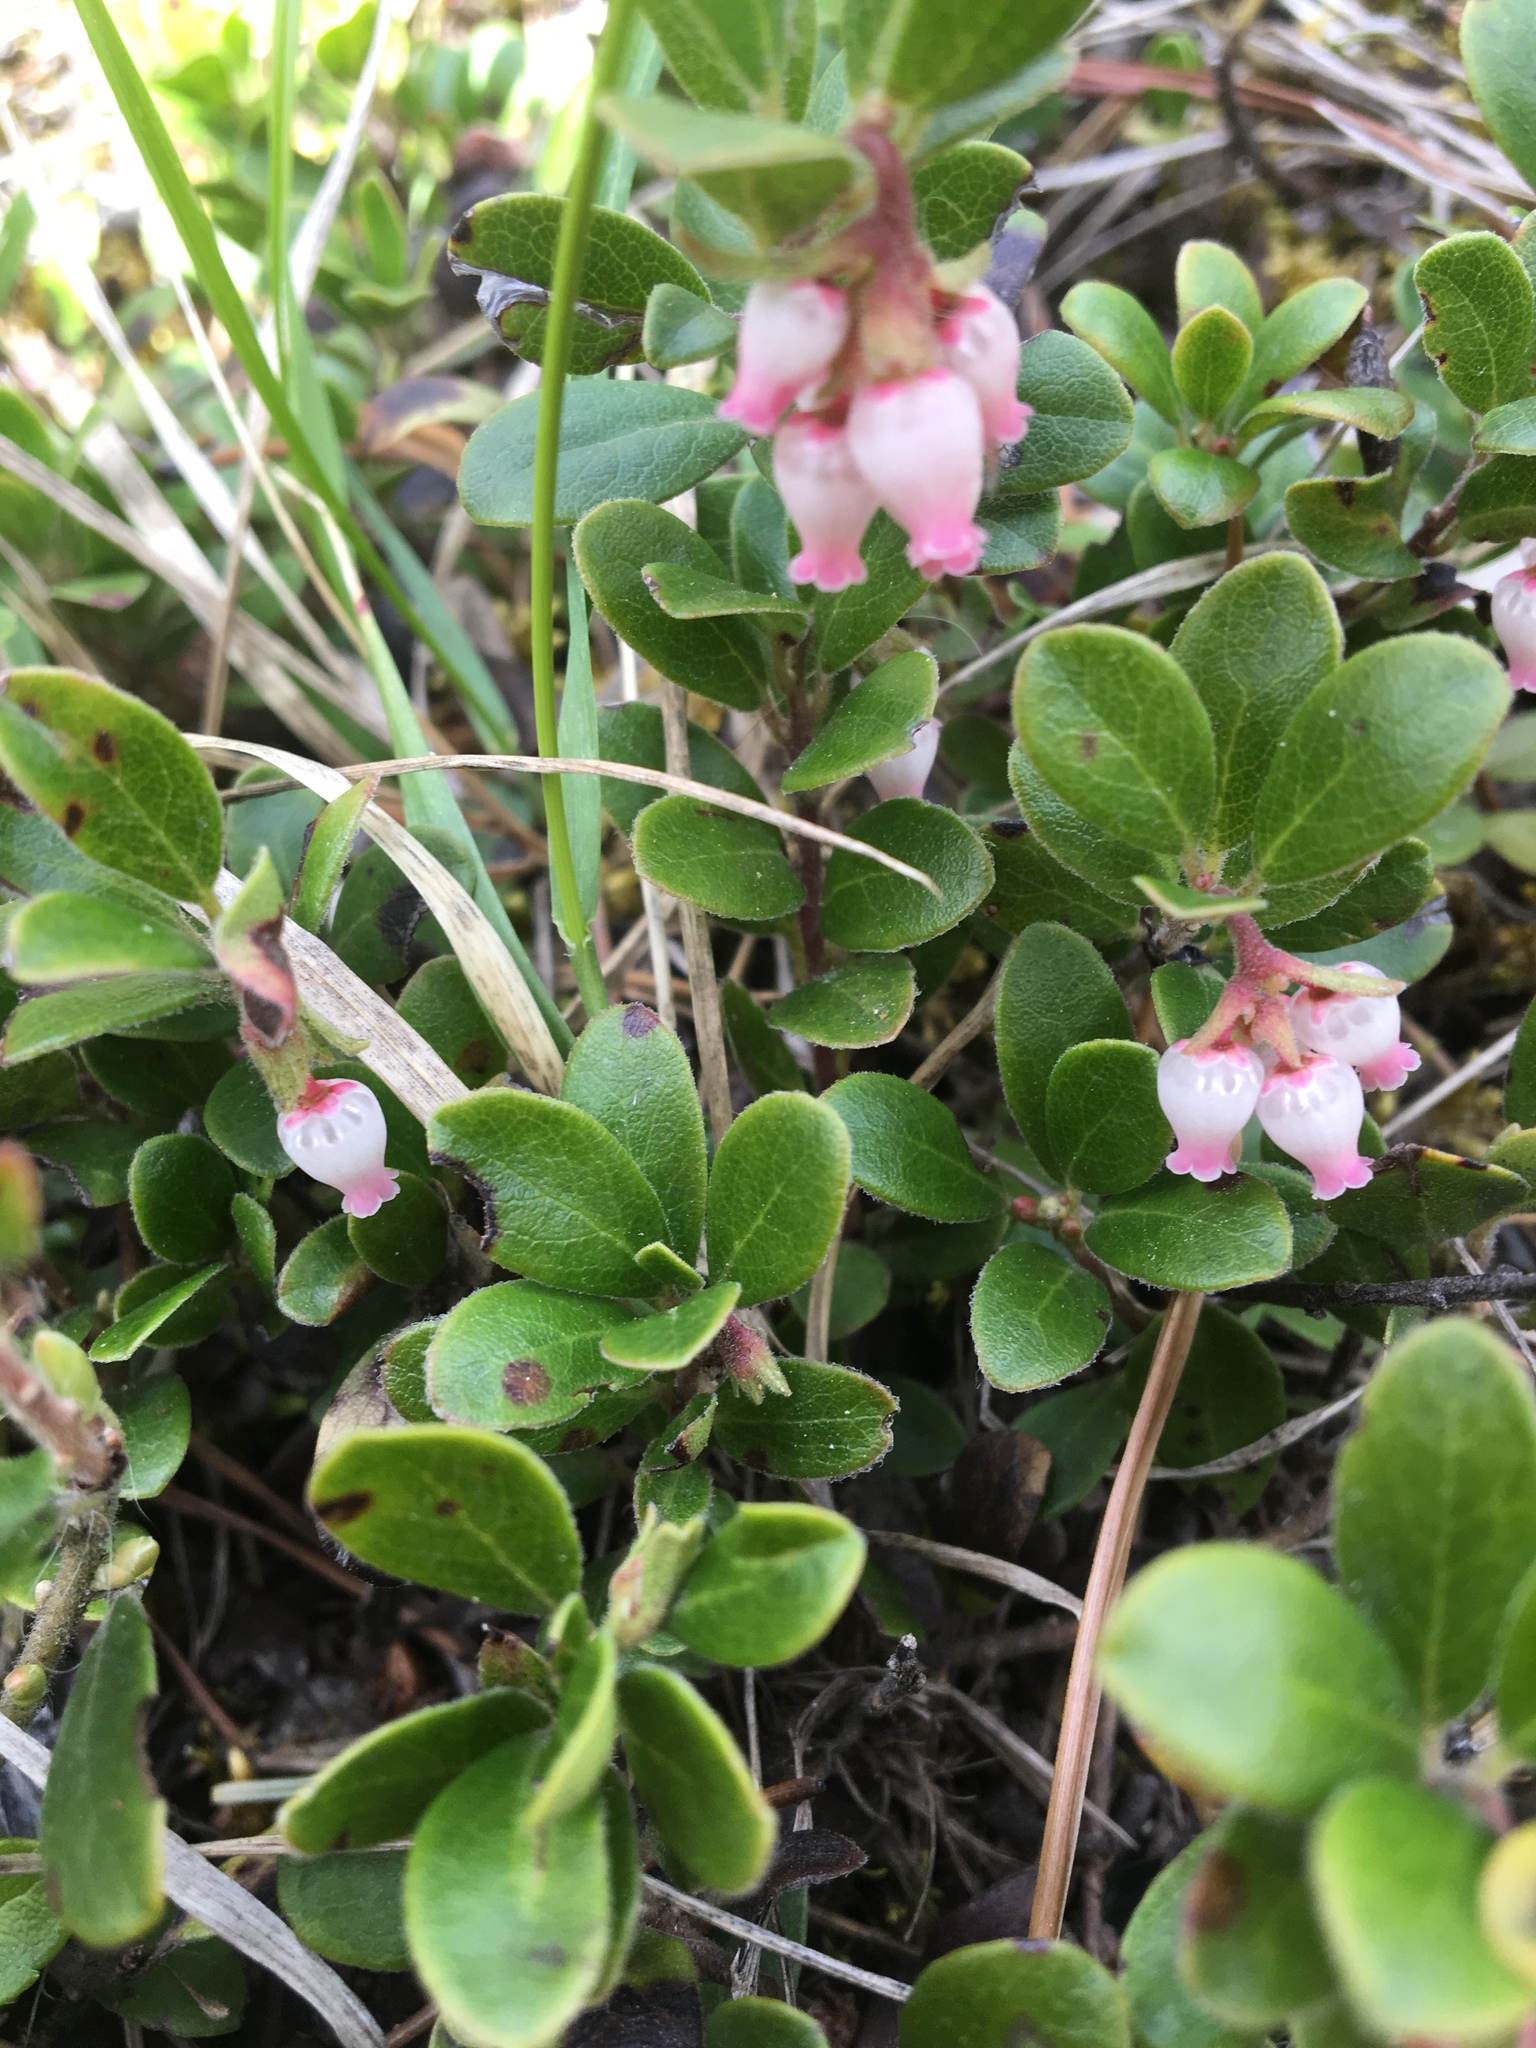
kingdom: Plantae
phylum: Tracheophyta
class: Magnoliopsida
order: Ericales
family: Ericaceae
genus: Arctostaphylos
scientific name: Arctostaphylos uva-ursi
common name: Bearberry
